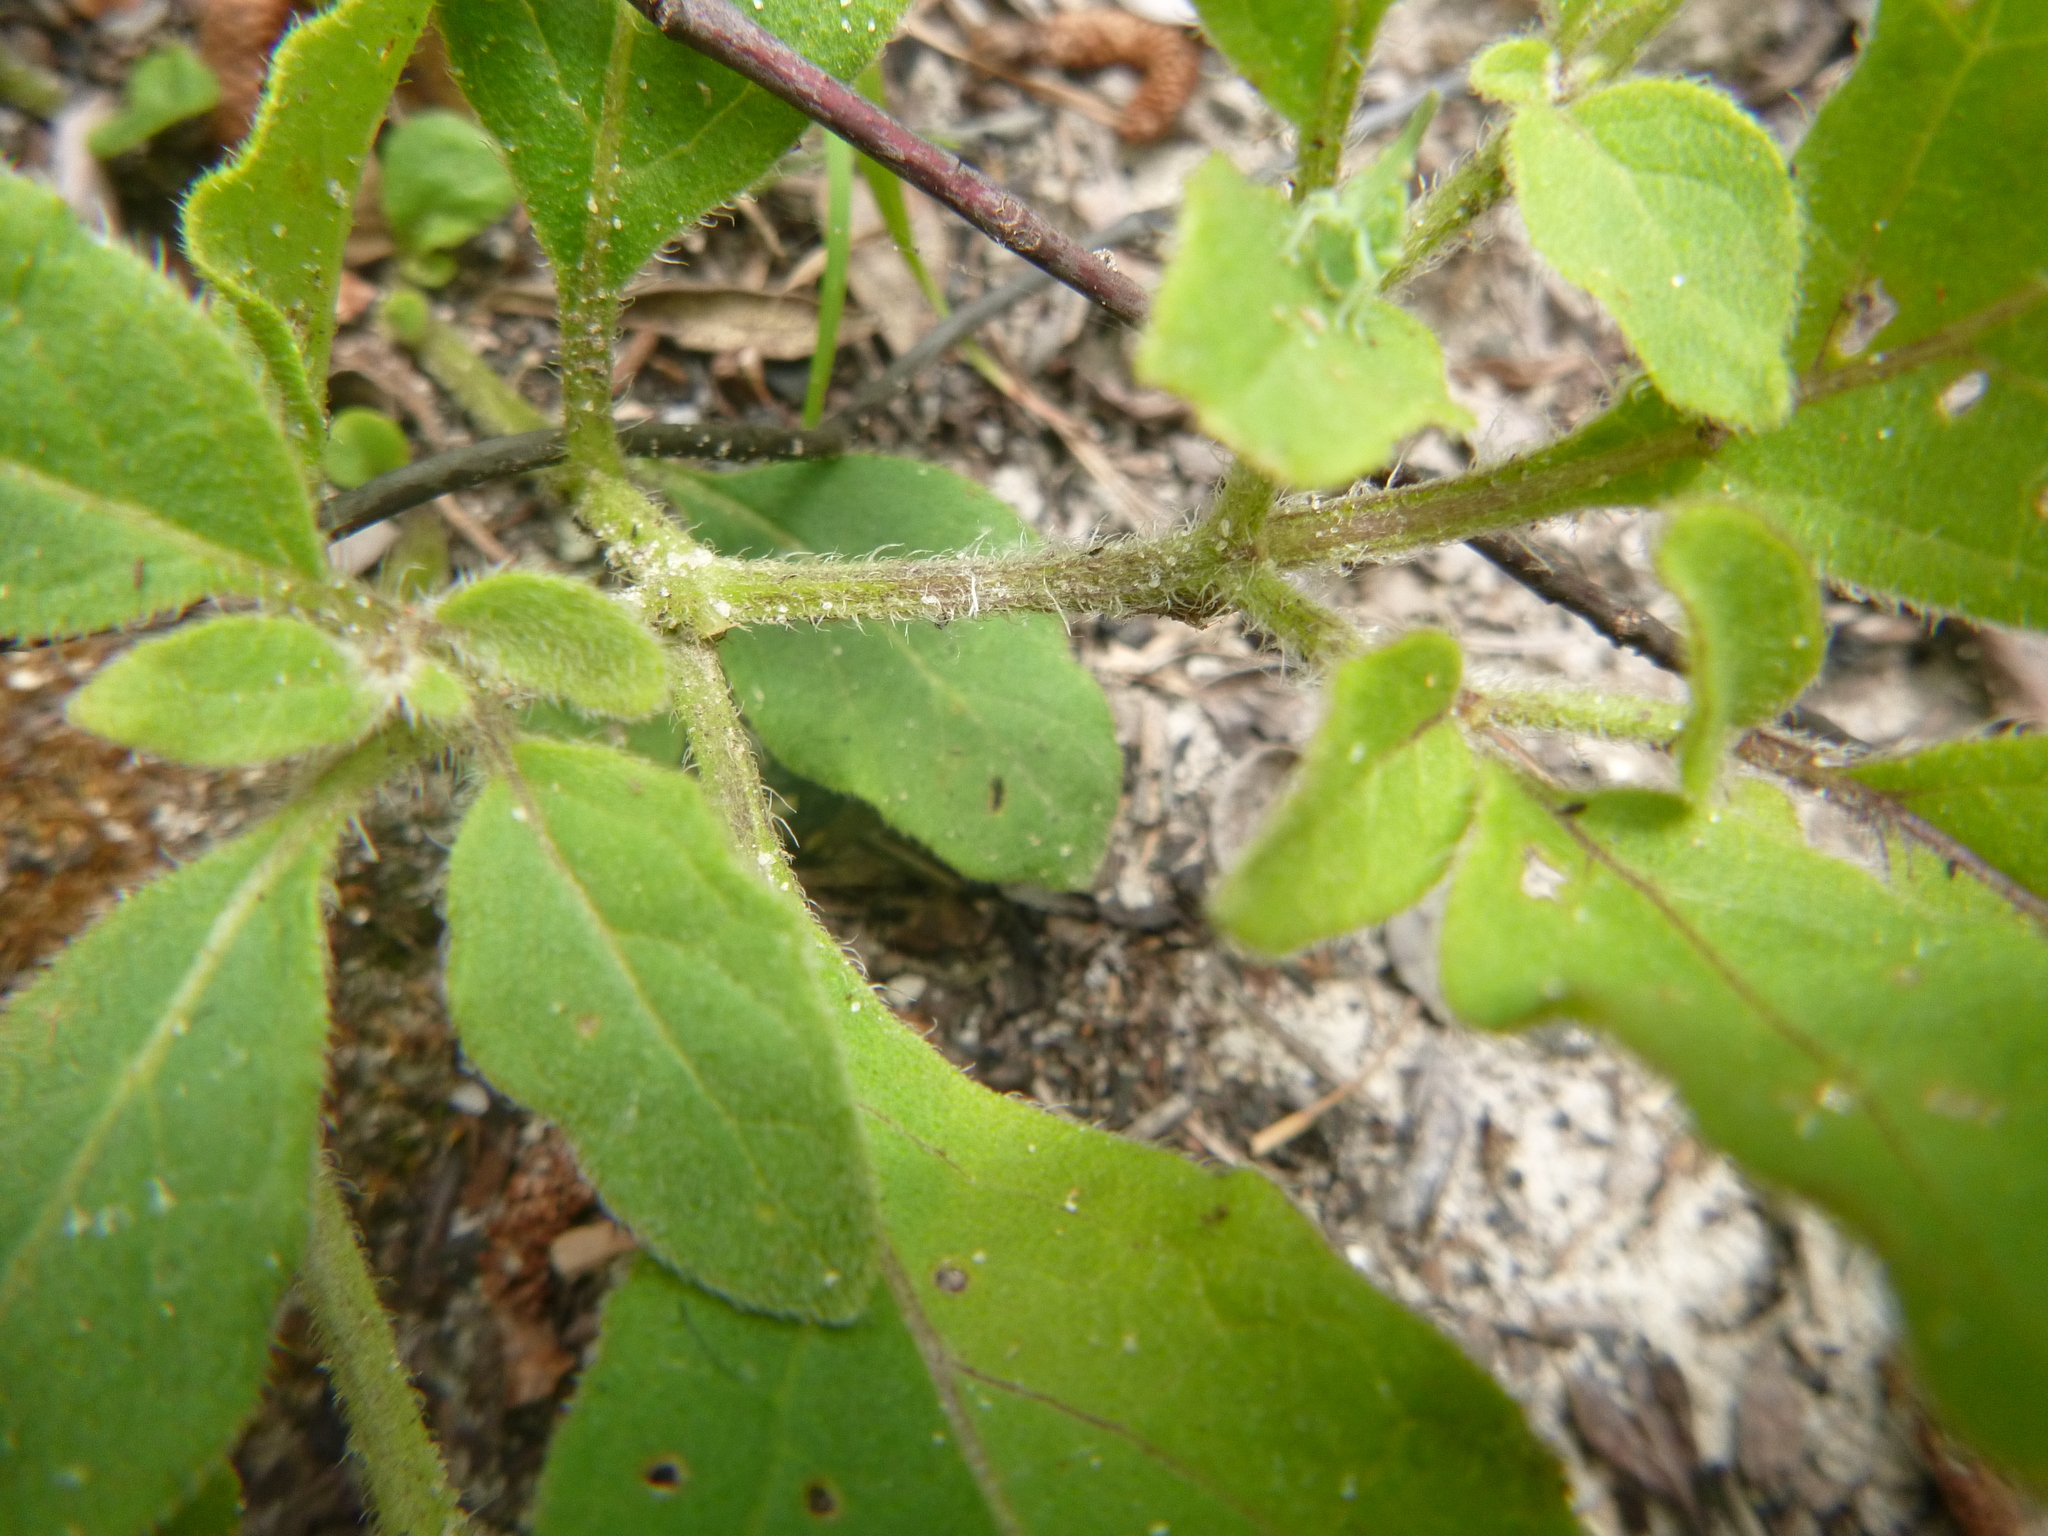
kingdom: Plantae
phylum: Tracheophyta
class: Magnoliopsida
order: Solanales
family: Solanaceae
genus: Physalis
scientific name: Physalis lanceolata
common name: Lance-leaved ground-cherry
